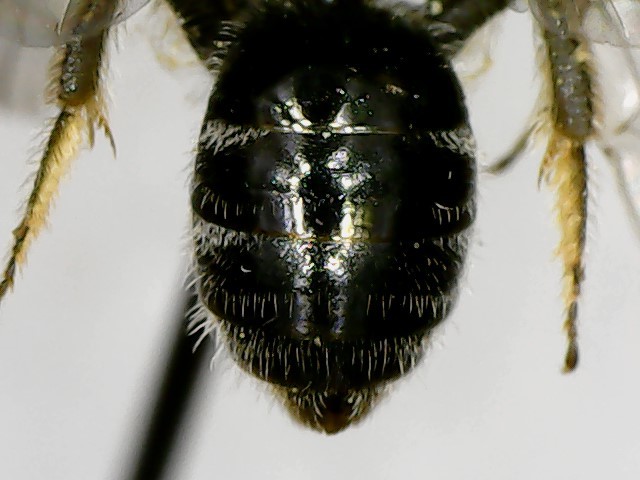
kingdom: Animalia
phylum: Arthropoda
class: Insecta
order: Hymenoptera
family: Halictidae
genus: Lasioglossum
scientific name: Lasioglossum pectorale
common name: Rugose-chested sweat bee
